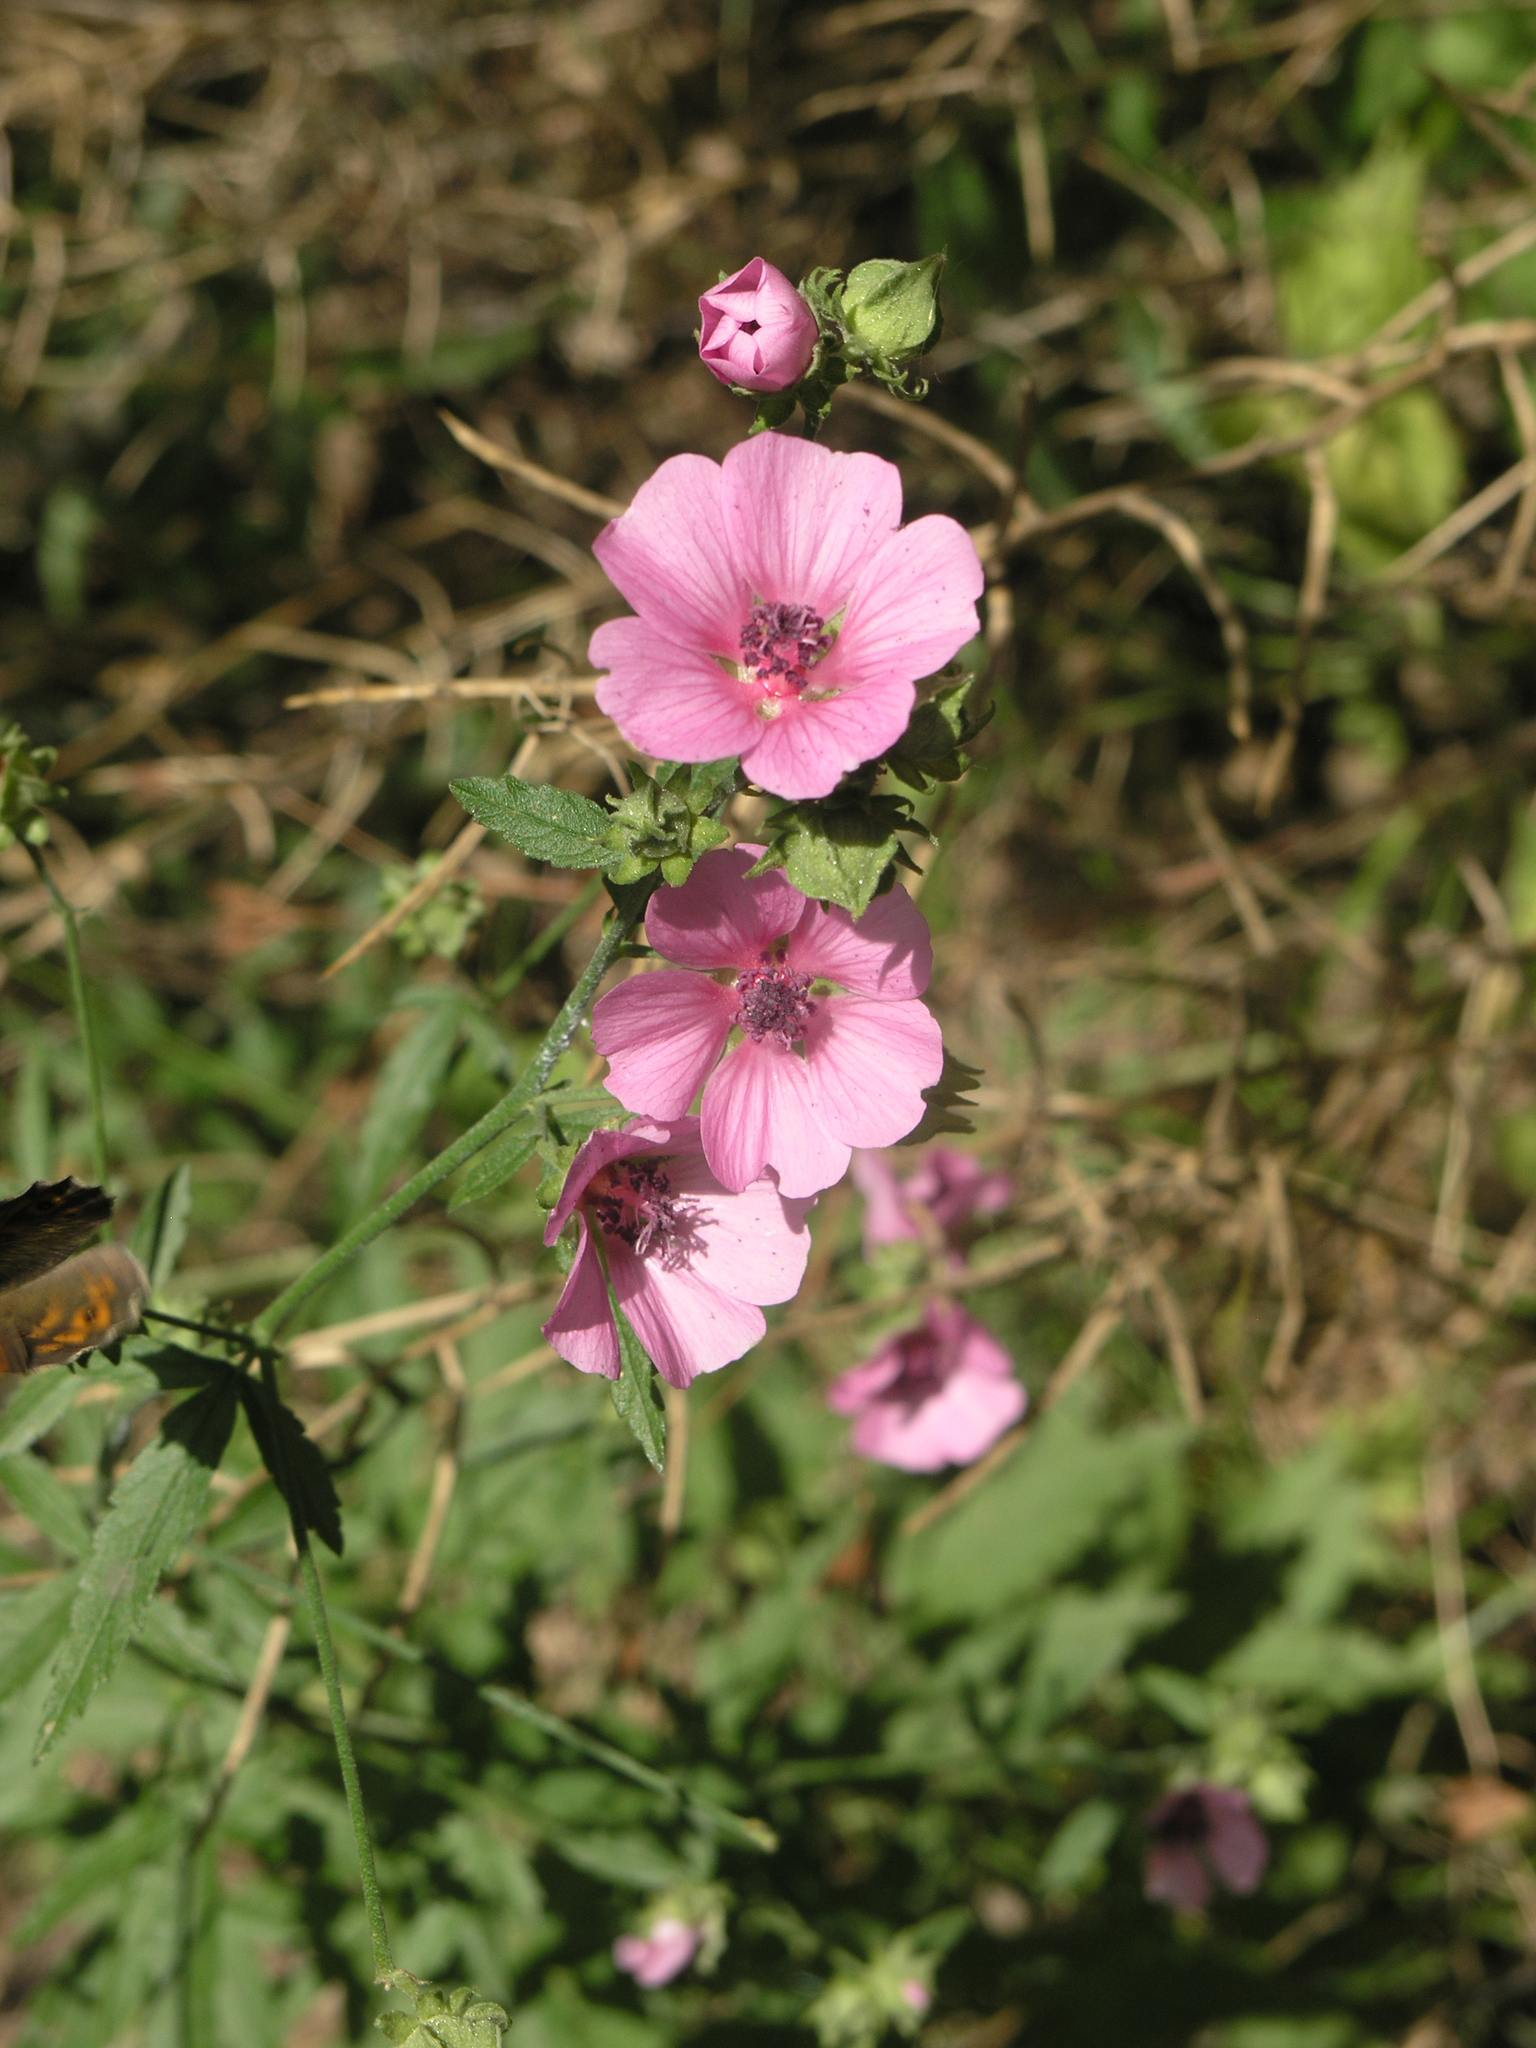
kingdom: Plantae
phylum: Tracheophyta
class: Magnoliopsida
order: Malvales
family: Malvaceae
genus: Althaea
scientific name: Althaea cannabina
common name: Palm-leaf marshmallow
